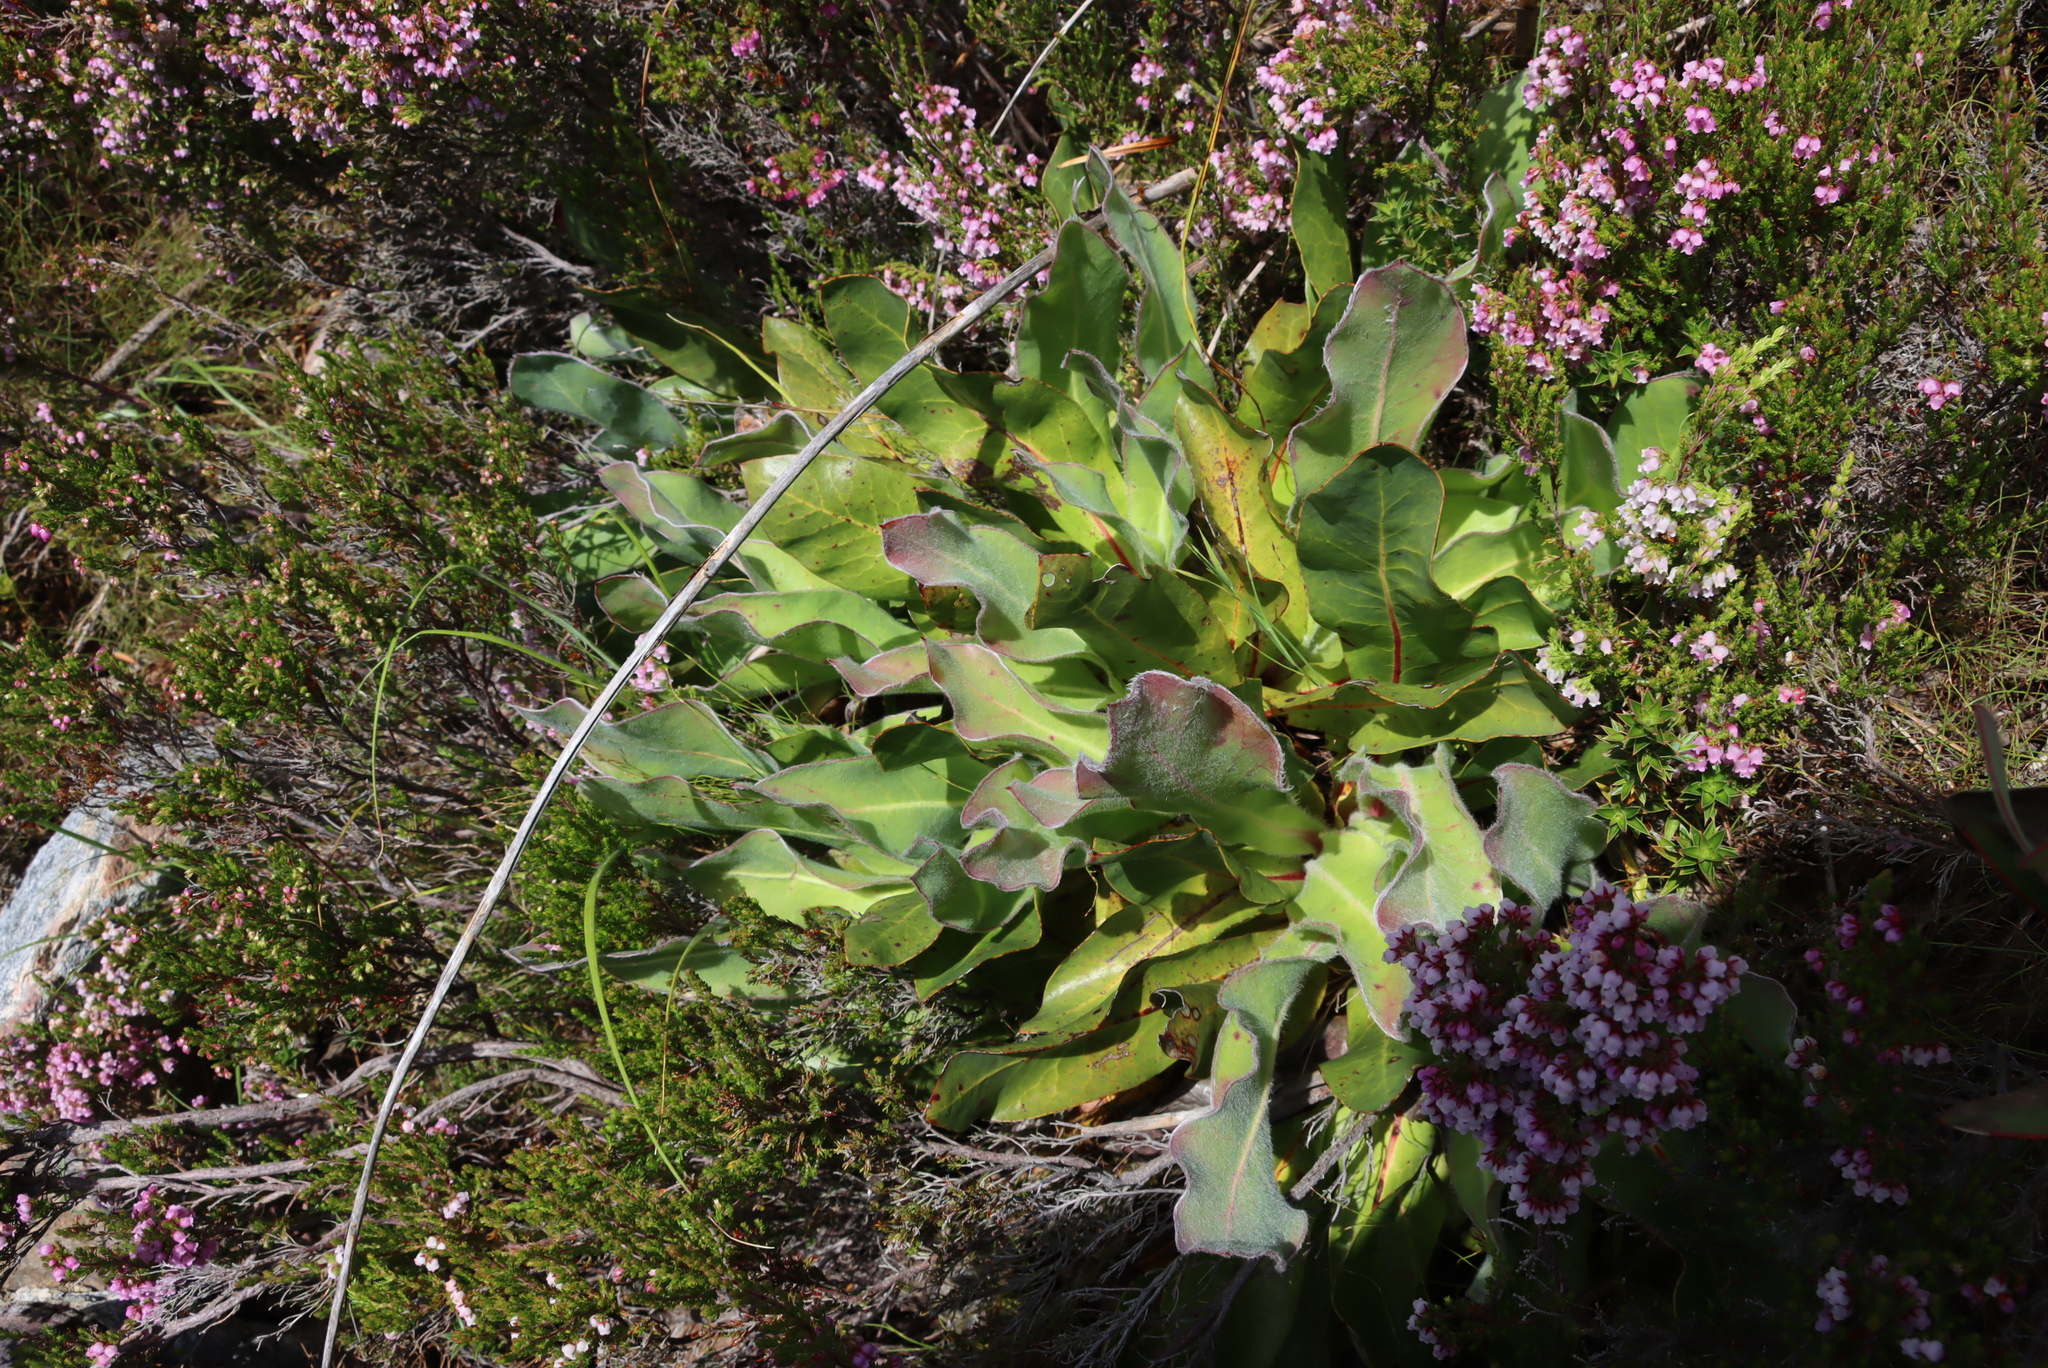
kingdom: Plantae
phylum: Tracheophyta
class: Magnoliopsida
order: Proteales
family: Proteaceae
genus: Protea
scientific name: Protea caespitosa
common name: Bishop sugarbush
